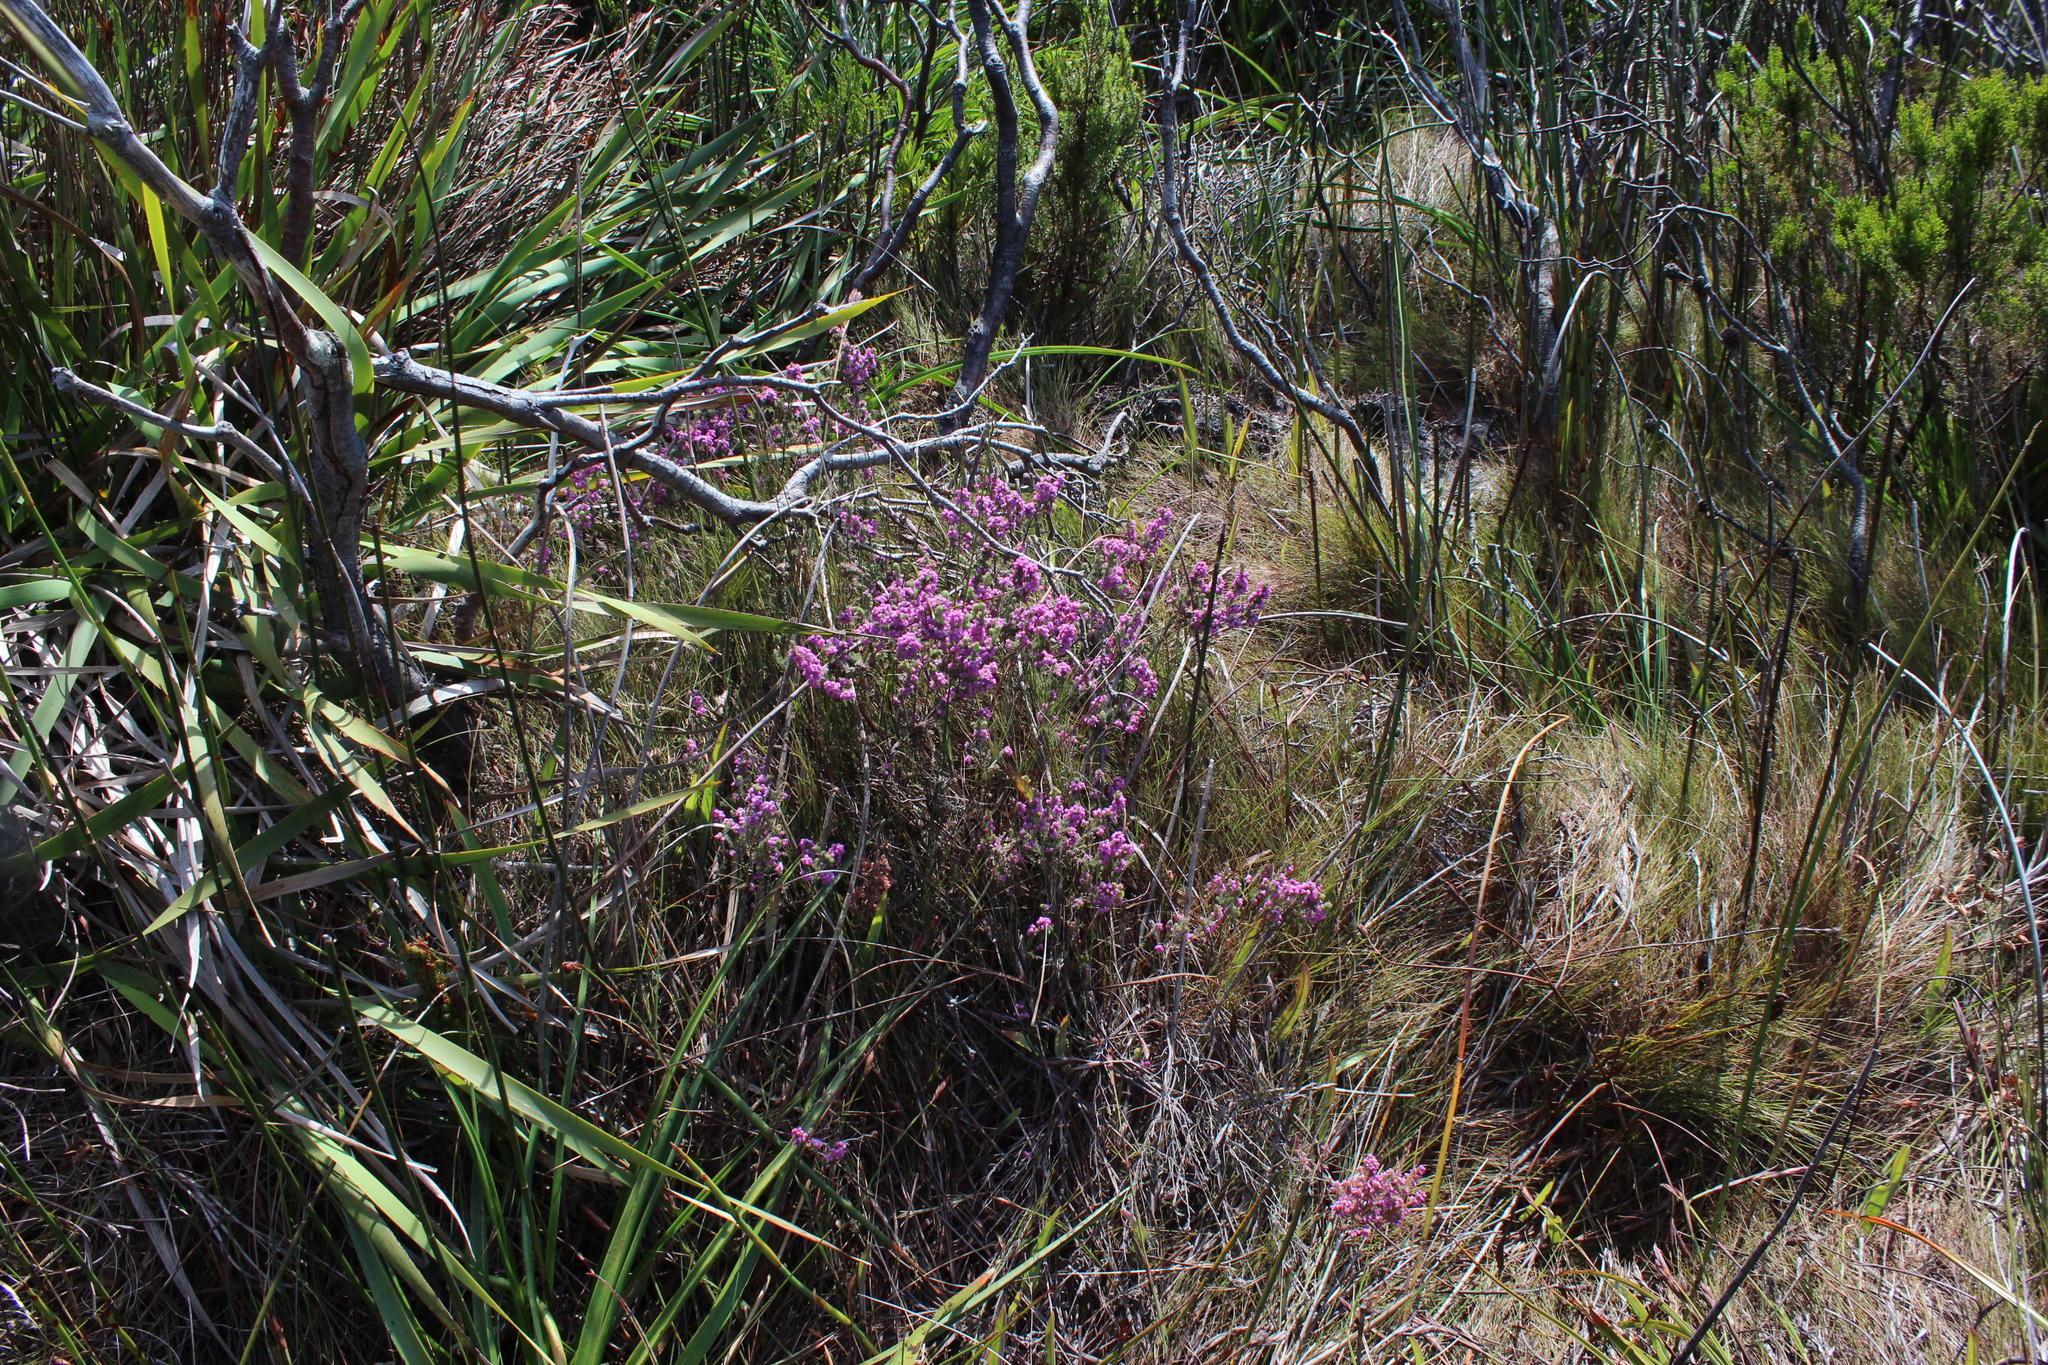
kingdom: Plantae
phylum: Tracheophyta
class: Magnoliopsida
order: Ericales
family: Ericaceae
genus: Erica
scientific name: Erica mollis
